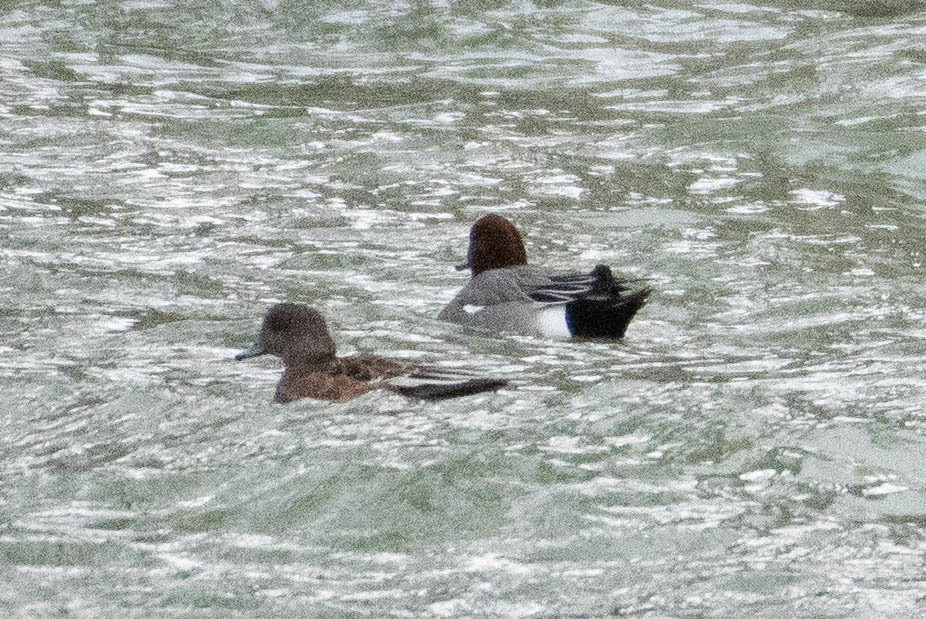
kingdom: Animalia
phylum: Chordata
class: Aves
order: Anseriformes
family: Anatidae
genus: Mareca
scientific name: Mareca penelope
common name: Eurasian wigeon
